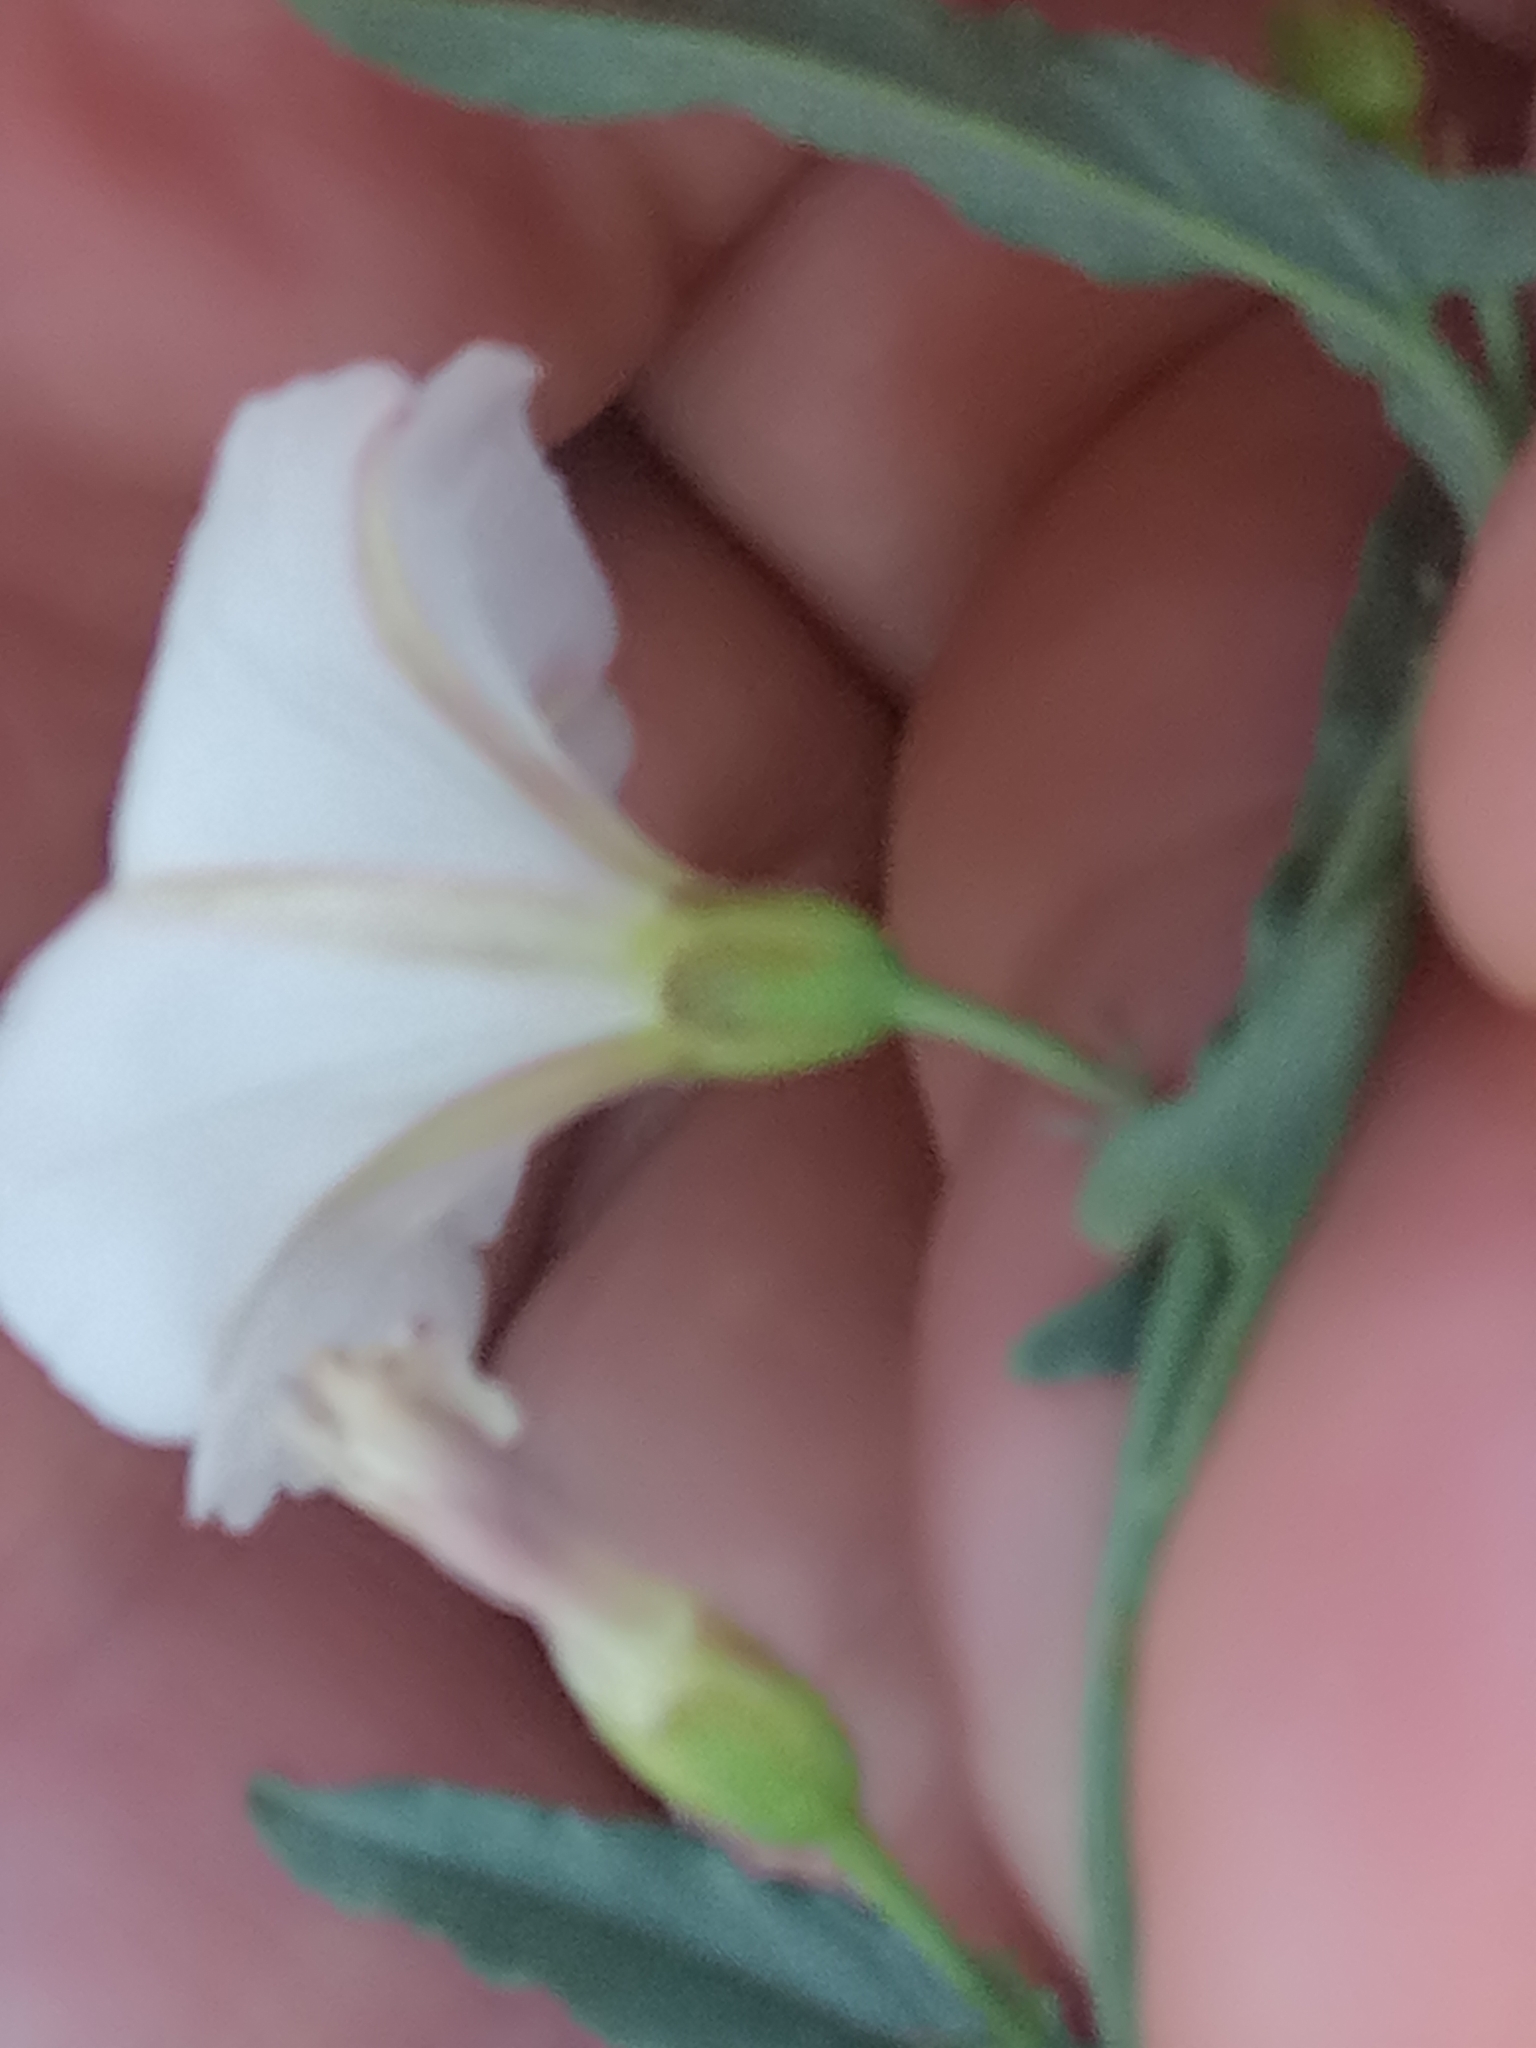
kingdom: Plantae
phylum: Tracheophyta
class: Magnoliopsida
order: Solanales
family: Convolvulaceae
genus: Convolvulus
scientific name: Convolvulus arvensis
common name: Field bindweed
